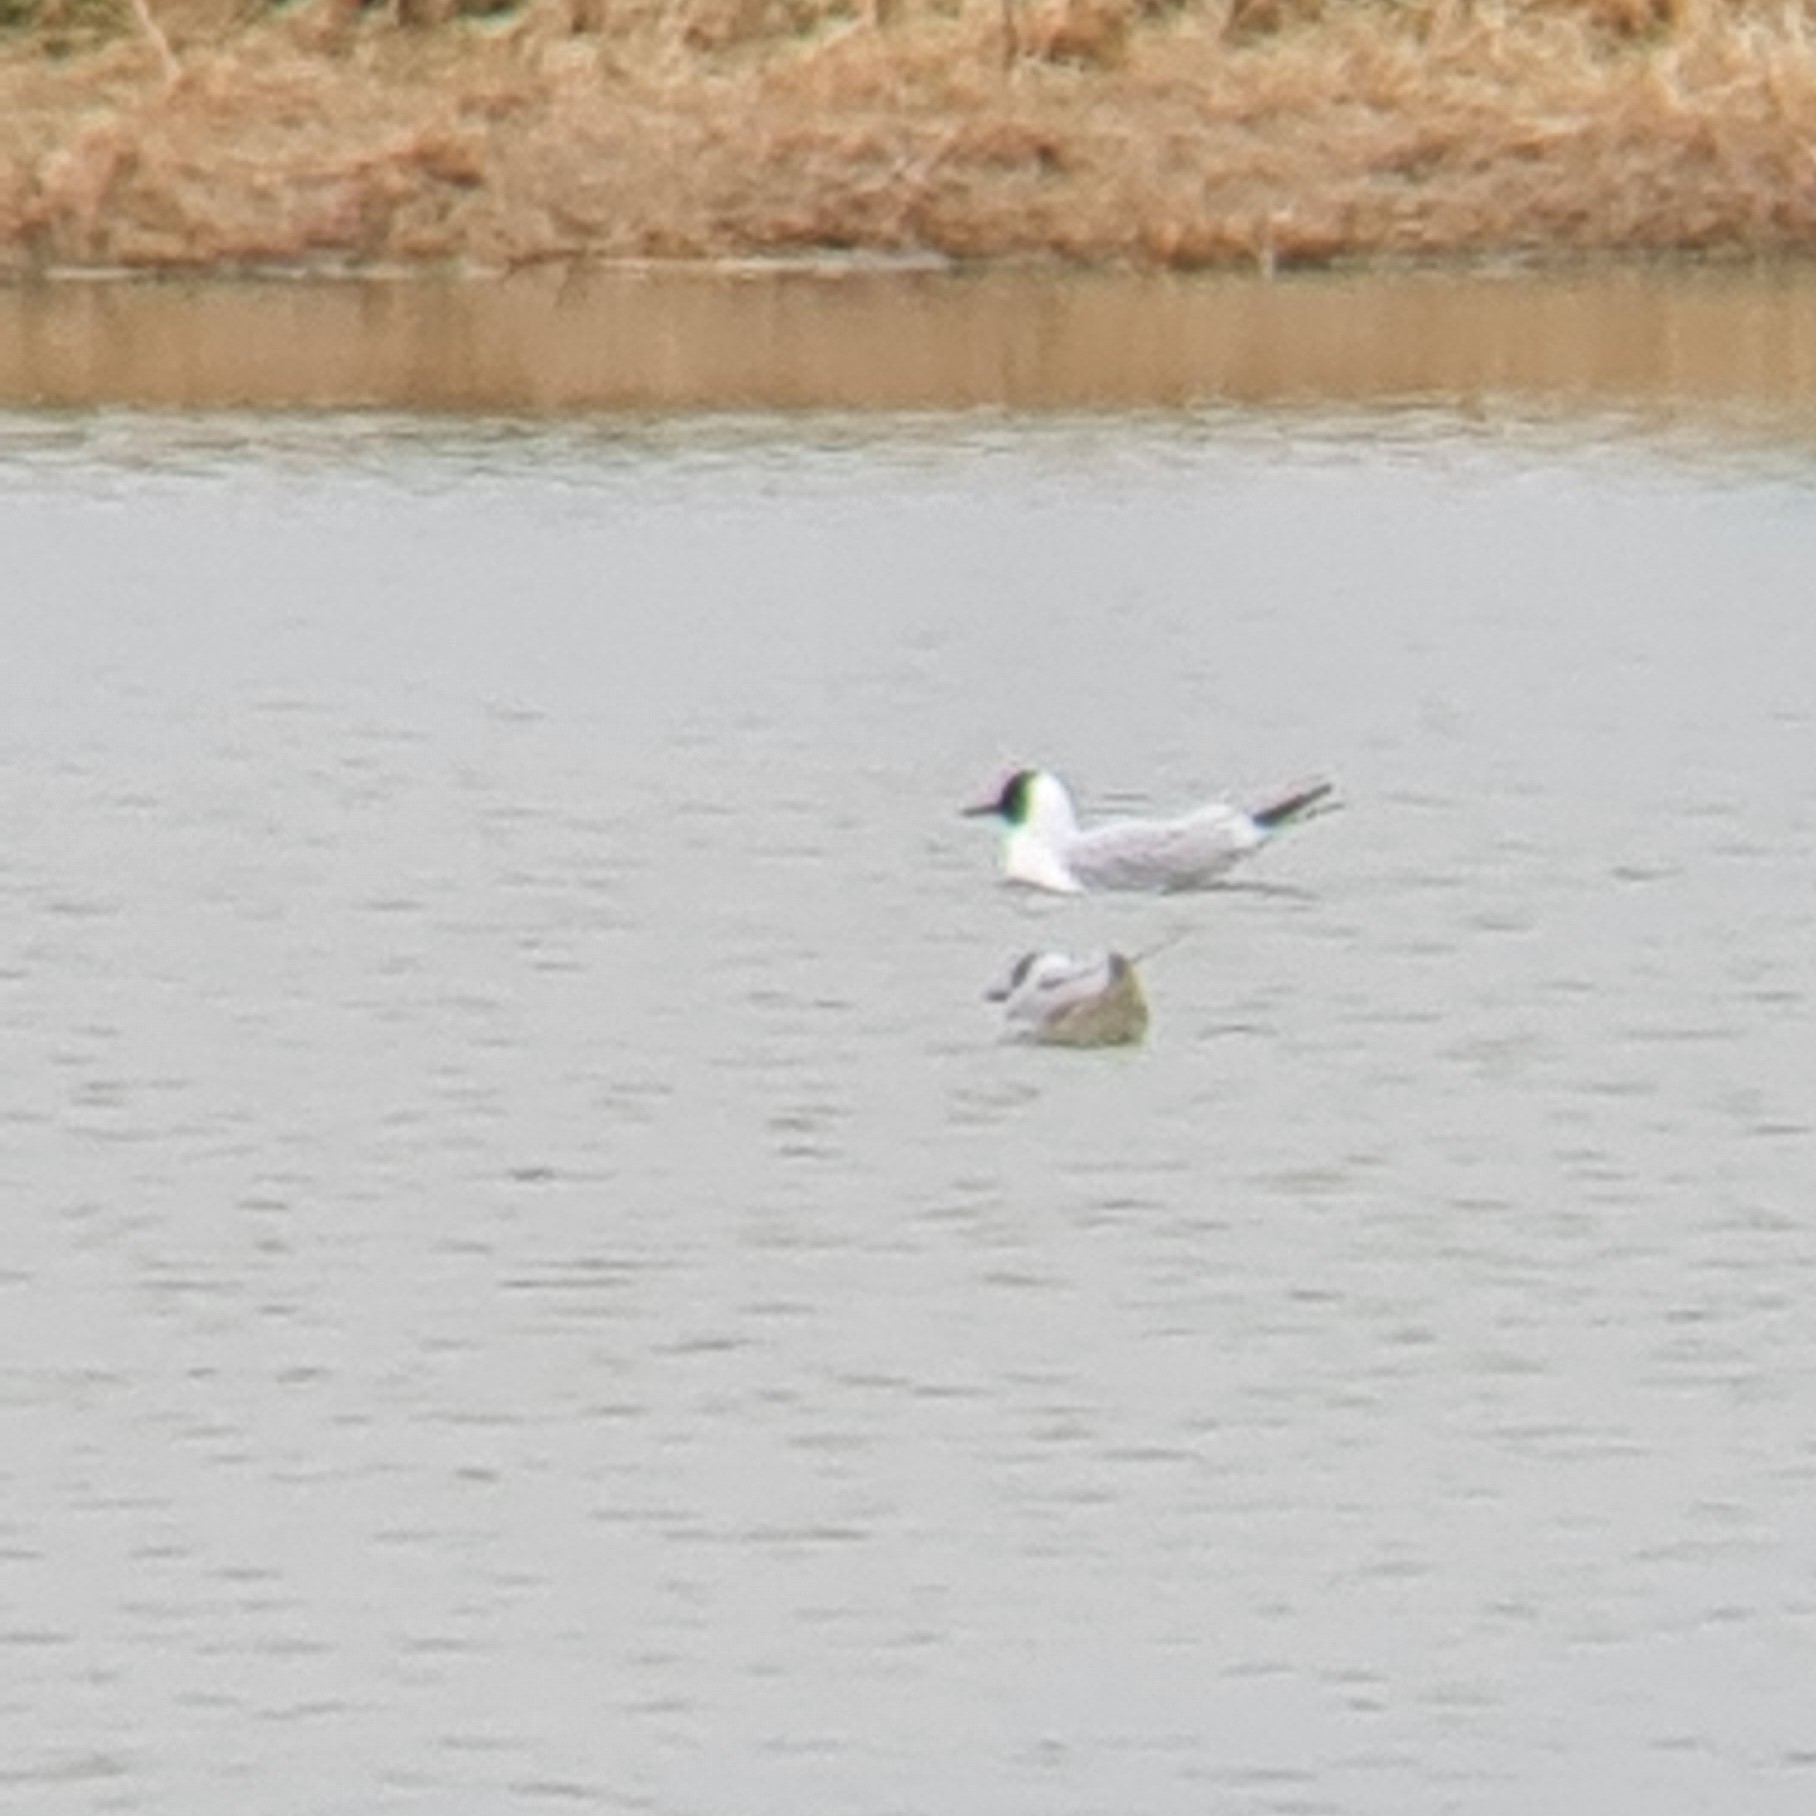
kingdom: Animalia
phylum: Chordata
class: Aves
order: Charadriiformes
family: Laridae
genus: Chroicocephalus
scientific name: Chroicocephalus ridibundus
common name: Black-headed gull
